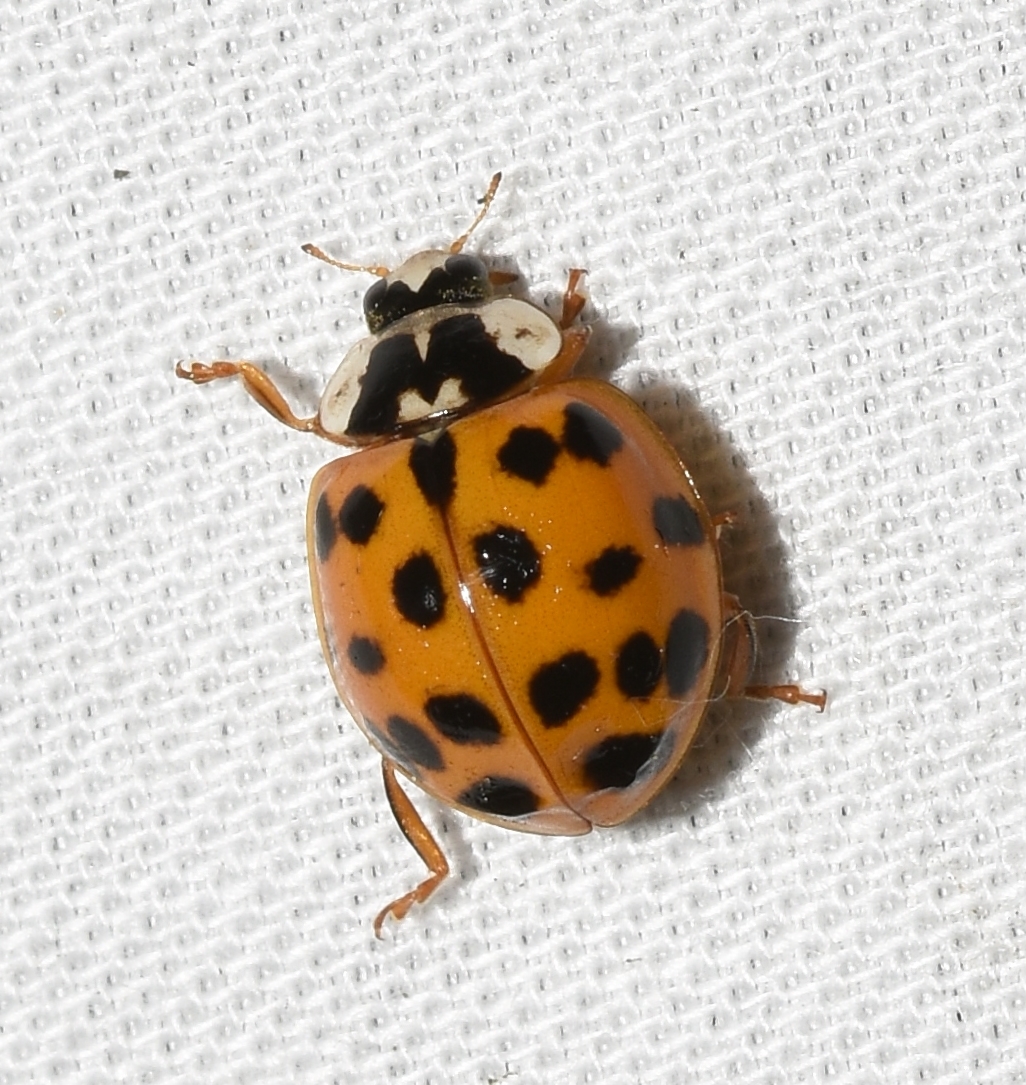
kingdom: Animalia
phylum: Arthropoda
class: Insecta
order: Coleoptera
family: Coccinellidae
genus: Harmonia
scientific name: Harmonia axyridis
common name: Harlequin ladybird
